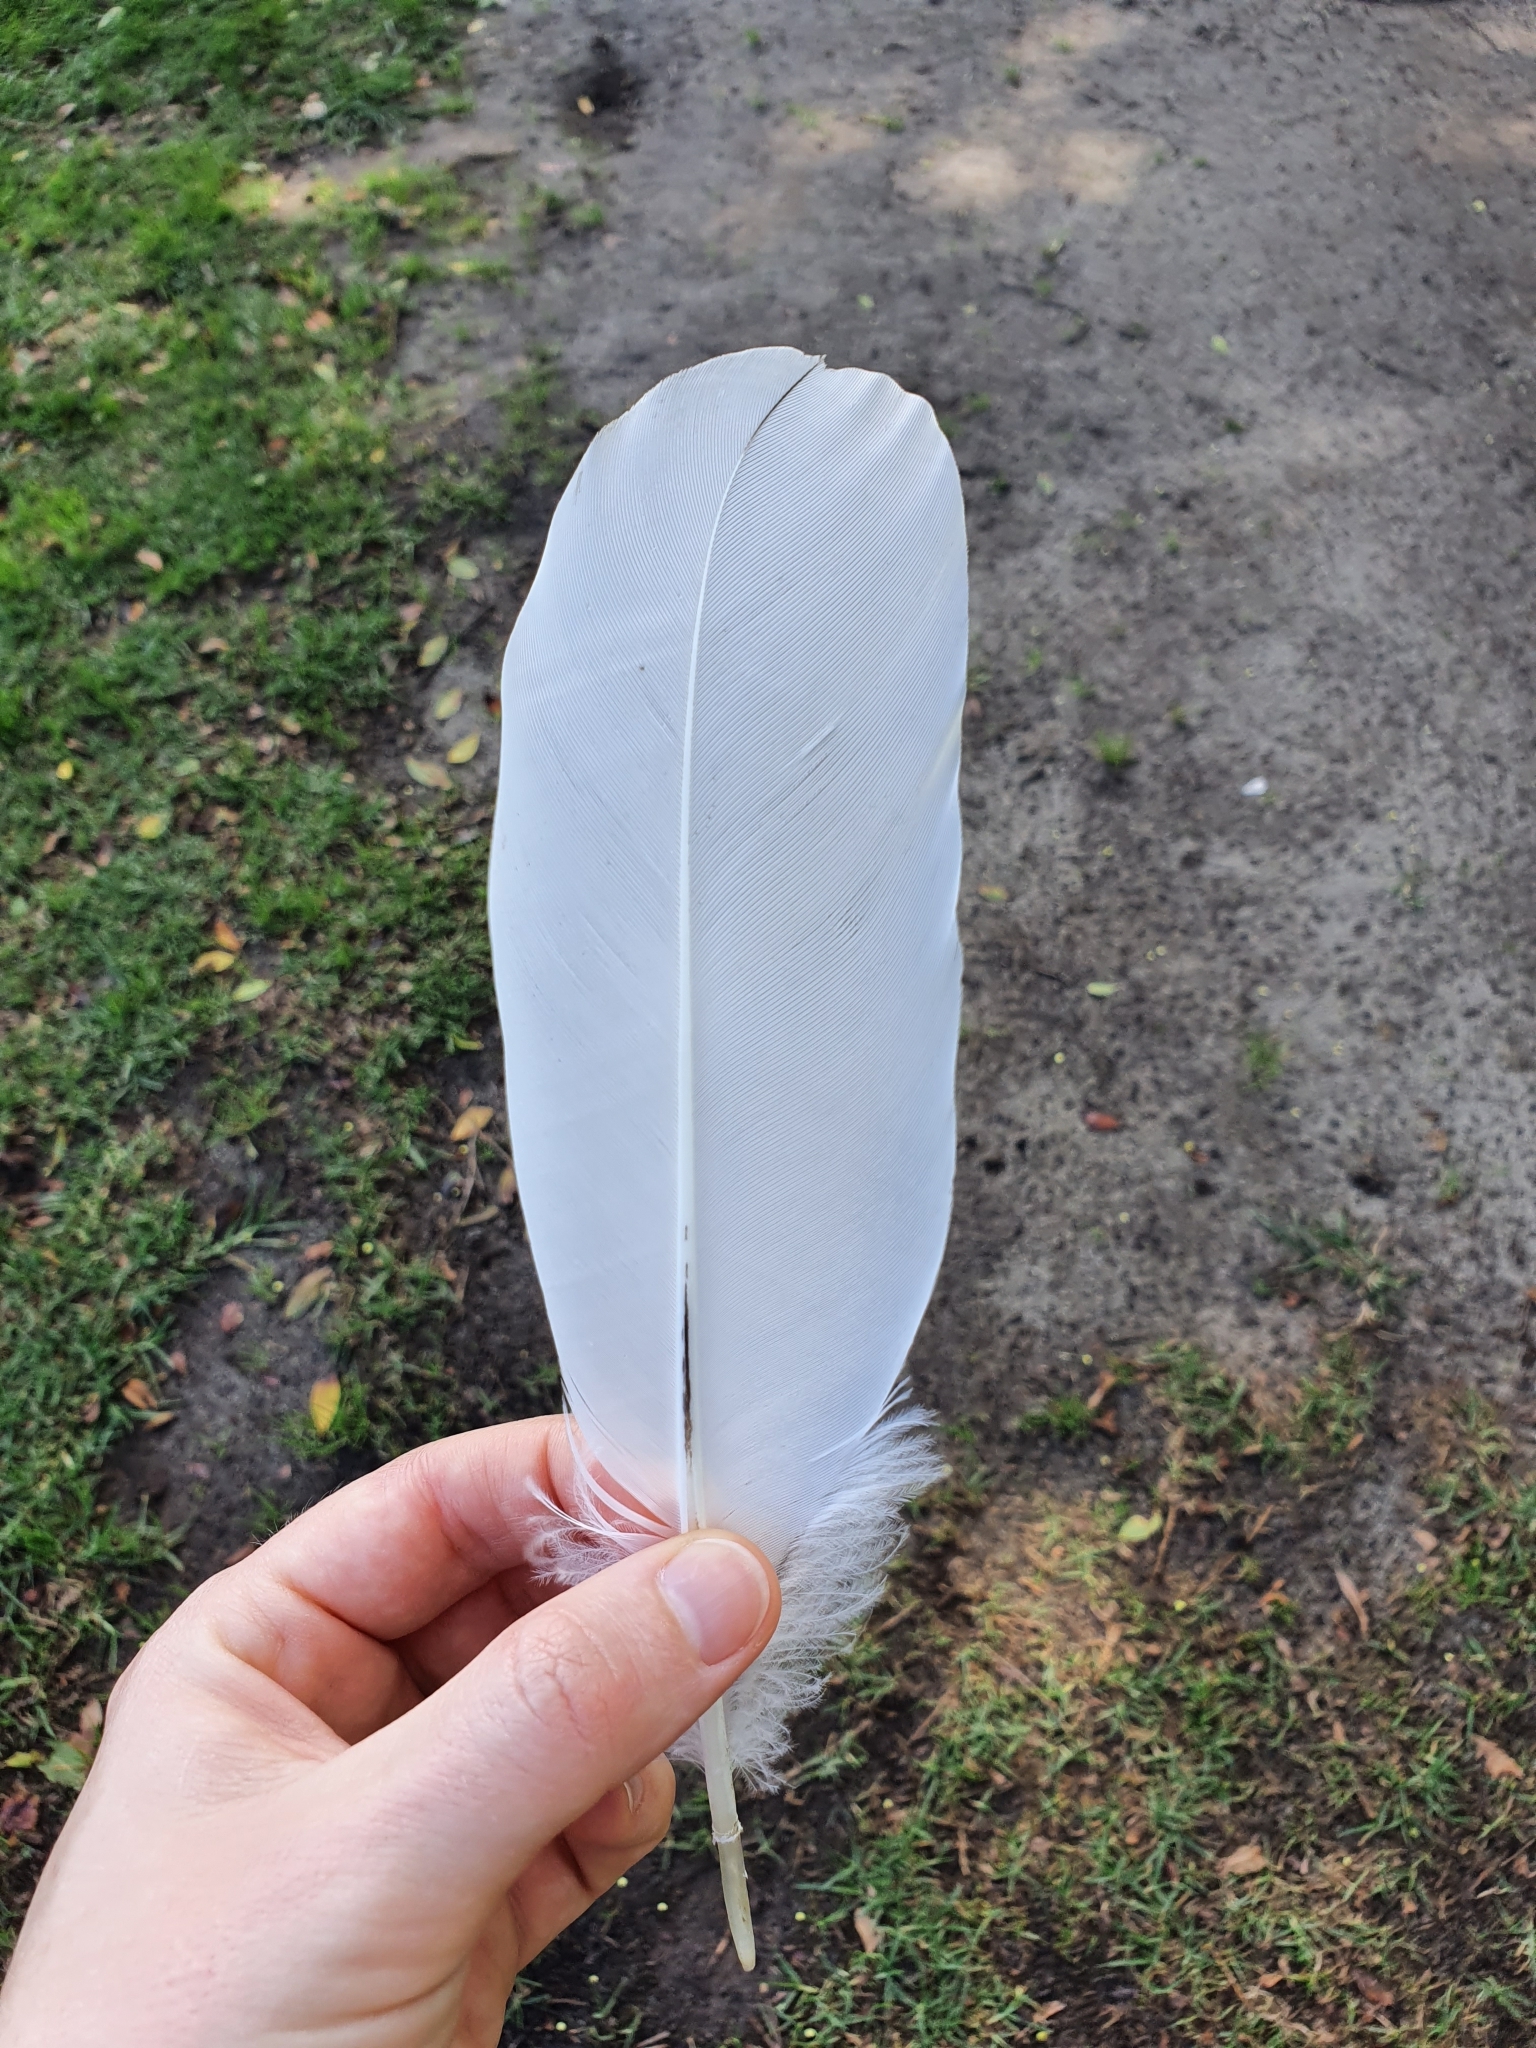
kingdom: Animalia
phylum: Chordata
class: Aves
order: Pelecaniformes
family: Threskiornithidae
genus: Threskiornis
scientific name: Threskiornis molucca
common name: Australian white ibis
